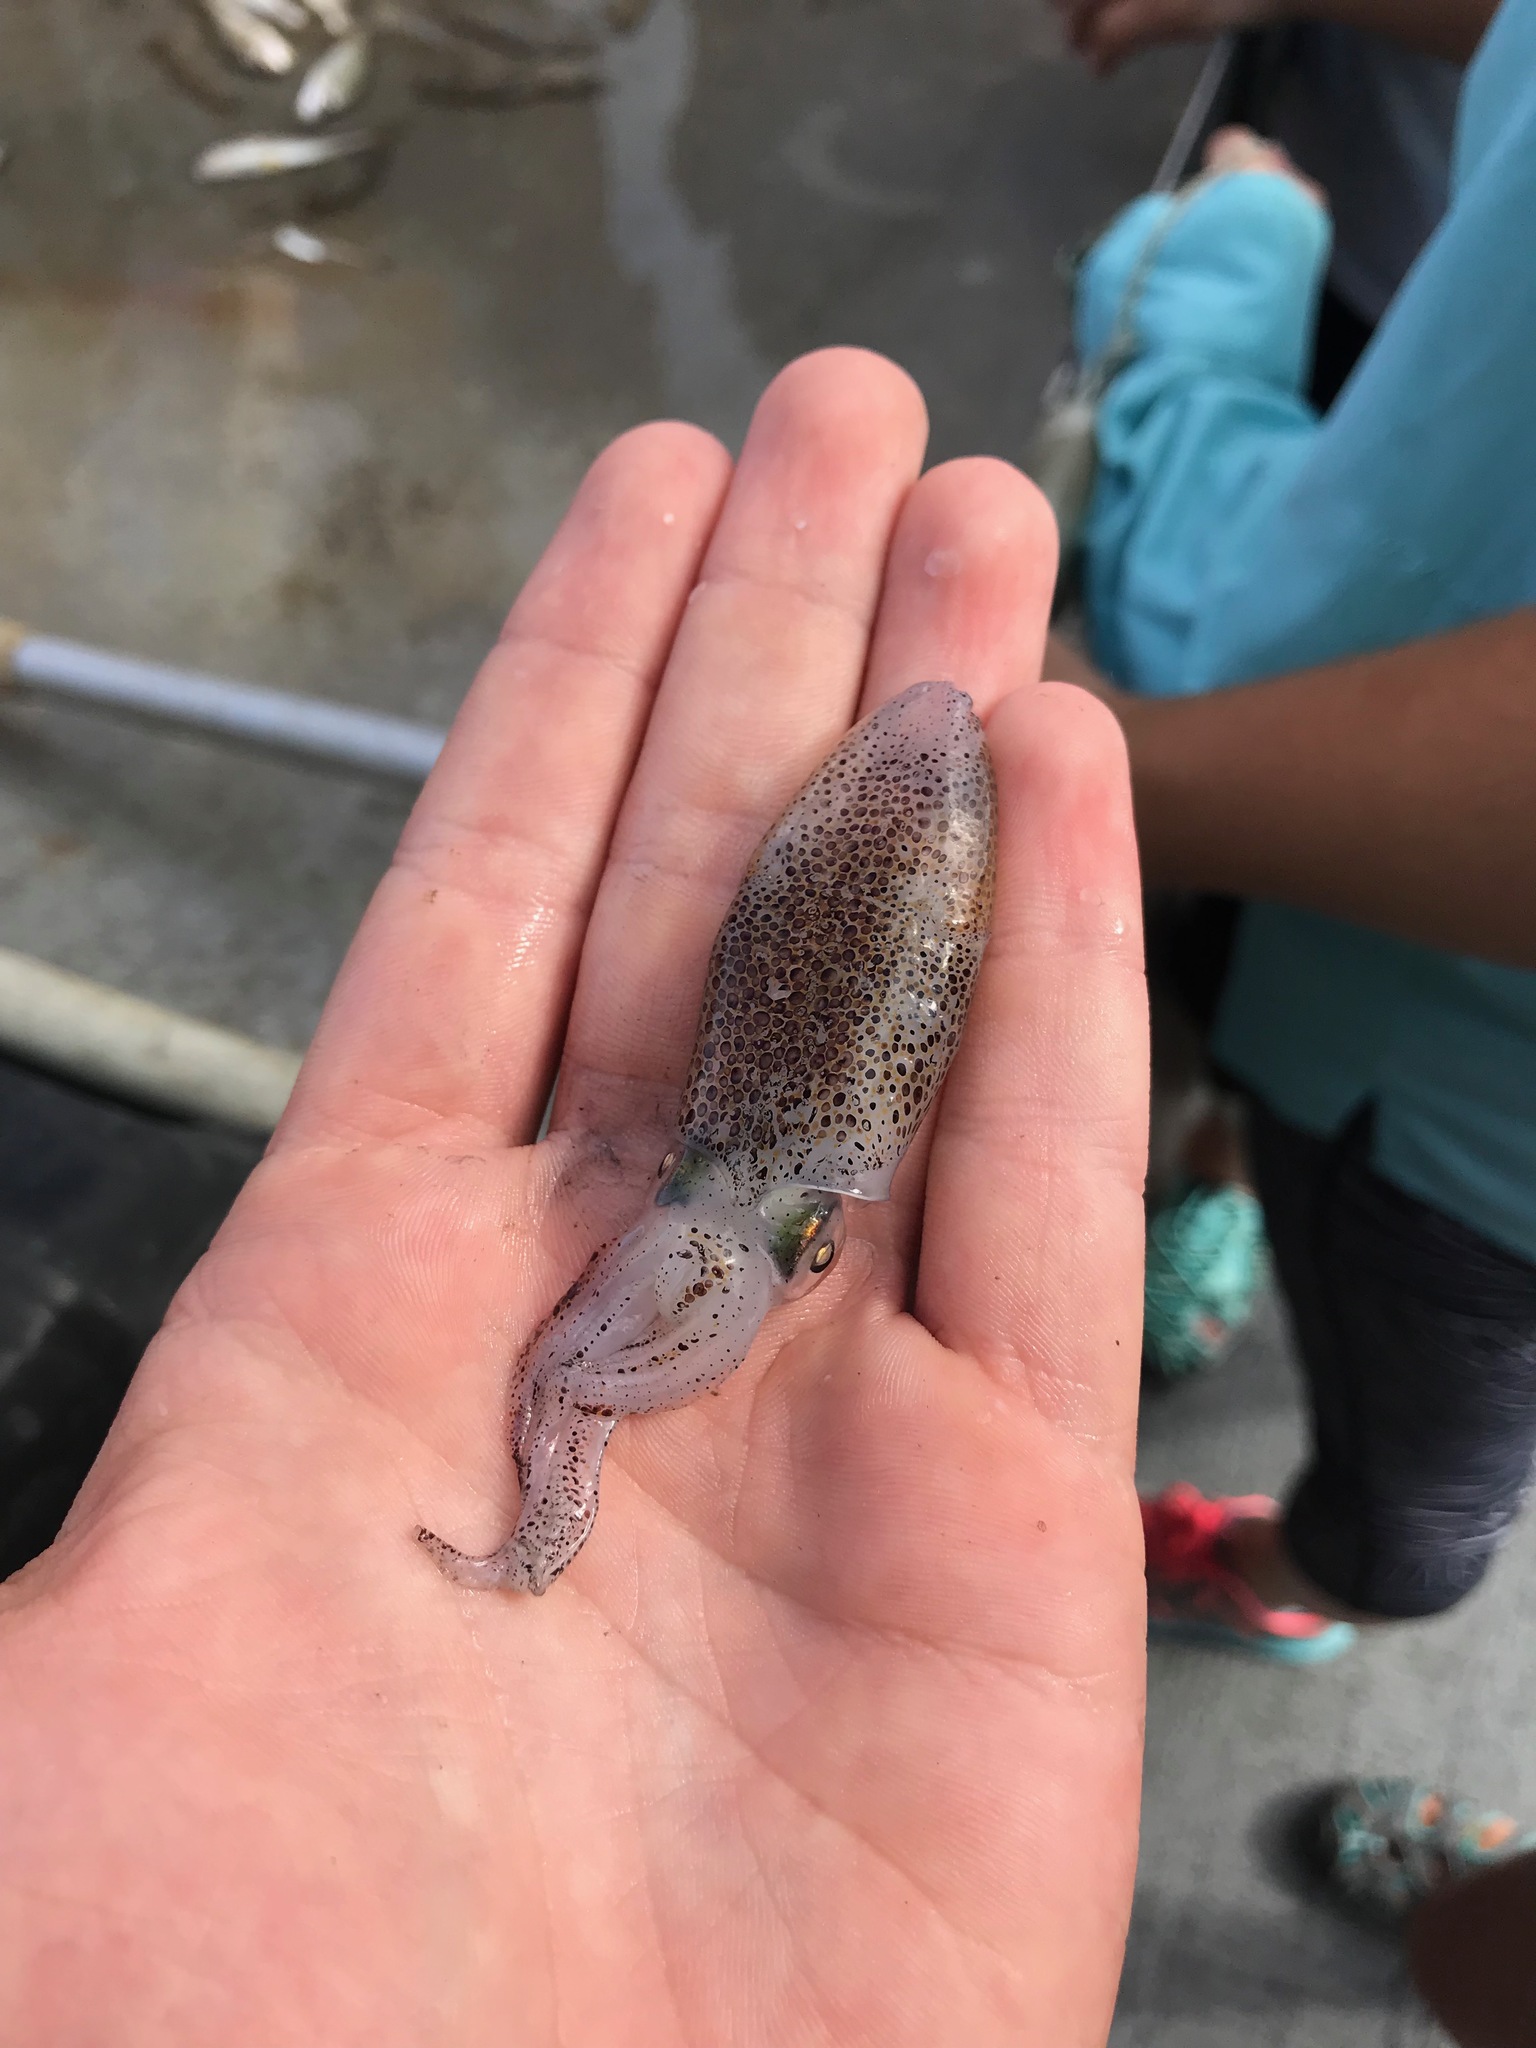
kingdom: Animalia
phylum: Mollusca
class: Cephalopoda
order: Myopsida
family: Loliginidae
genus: Lolliguncula
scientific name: Lolliguncula brevis
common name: Brief squid
